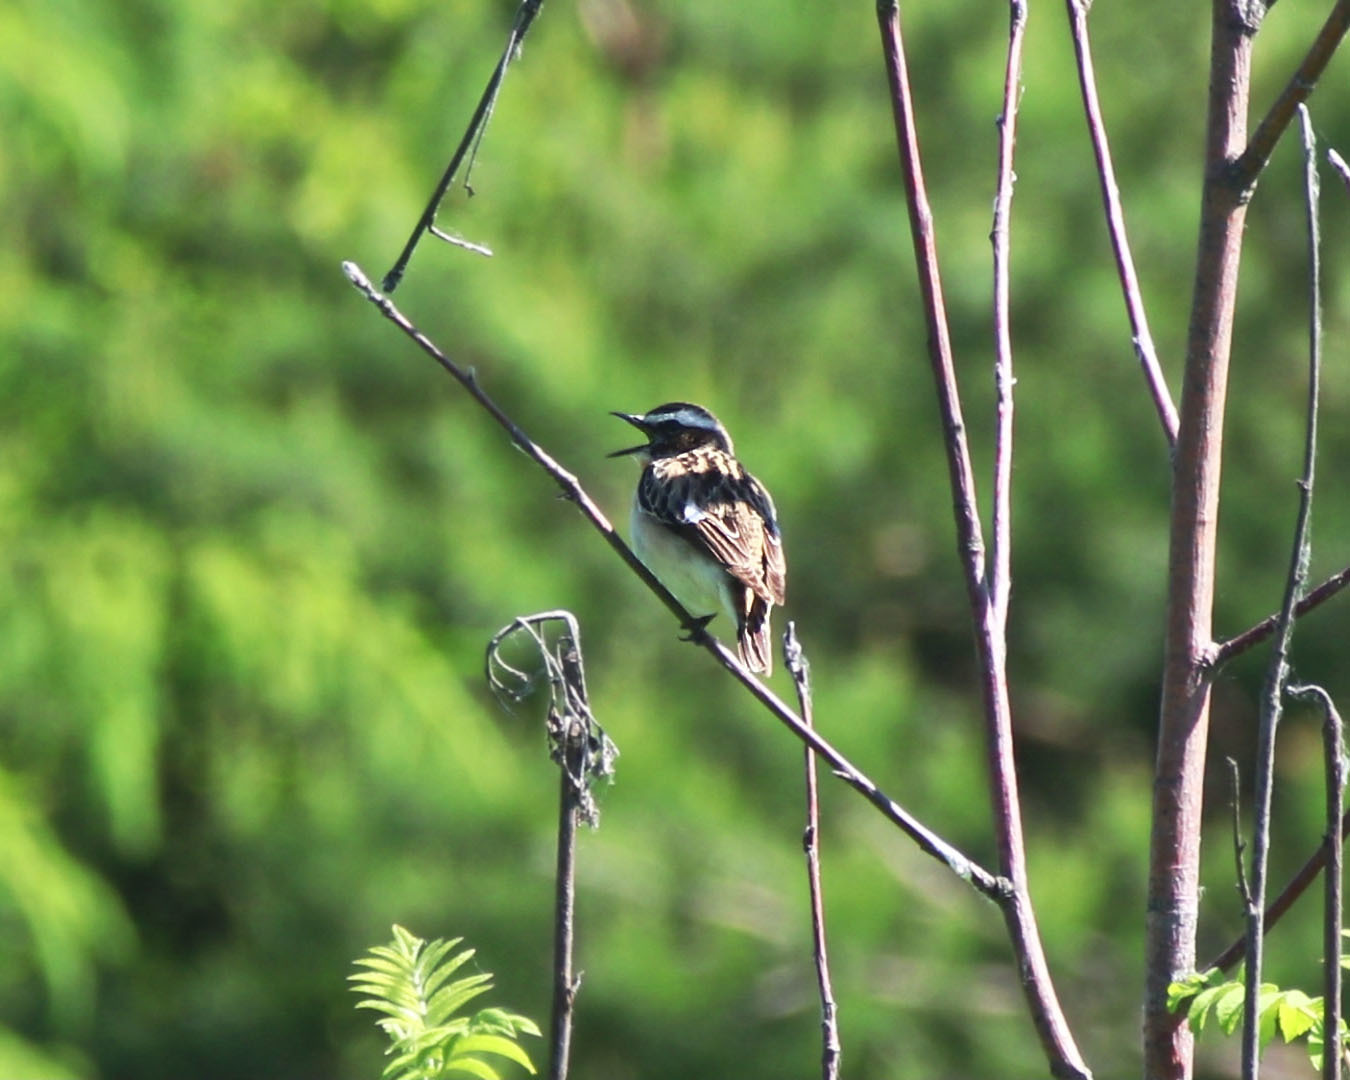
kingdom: Animalia
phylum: Chordata
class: Aves
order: Passeriformes
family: Muscicapidae
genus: Saxicola
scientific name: Saxicola rubetra
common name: Whinchat
